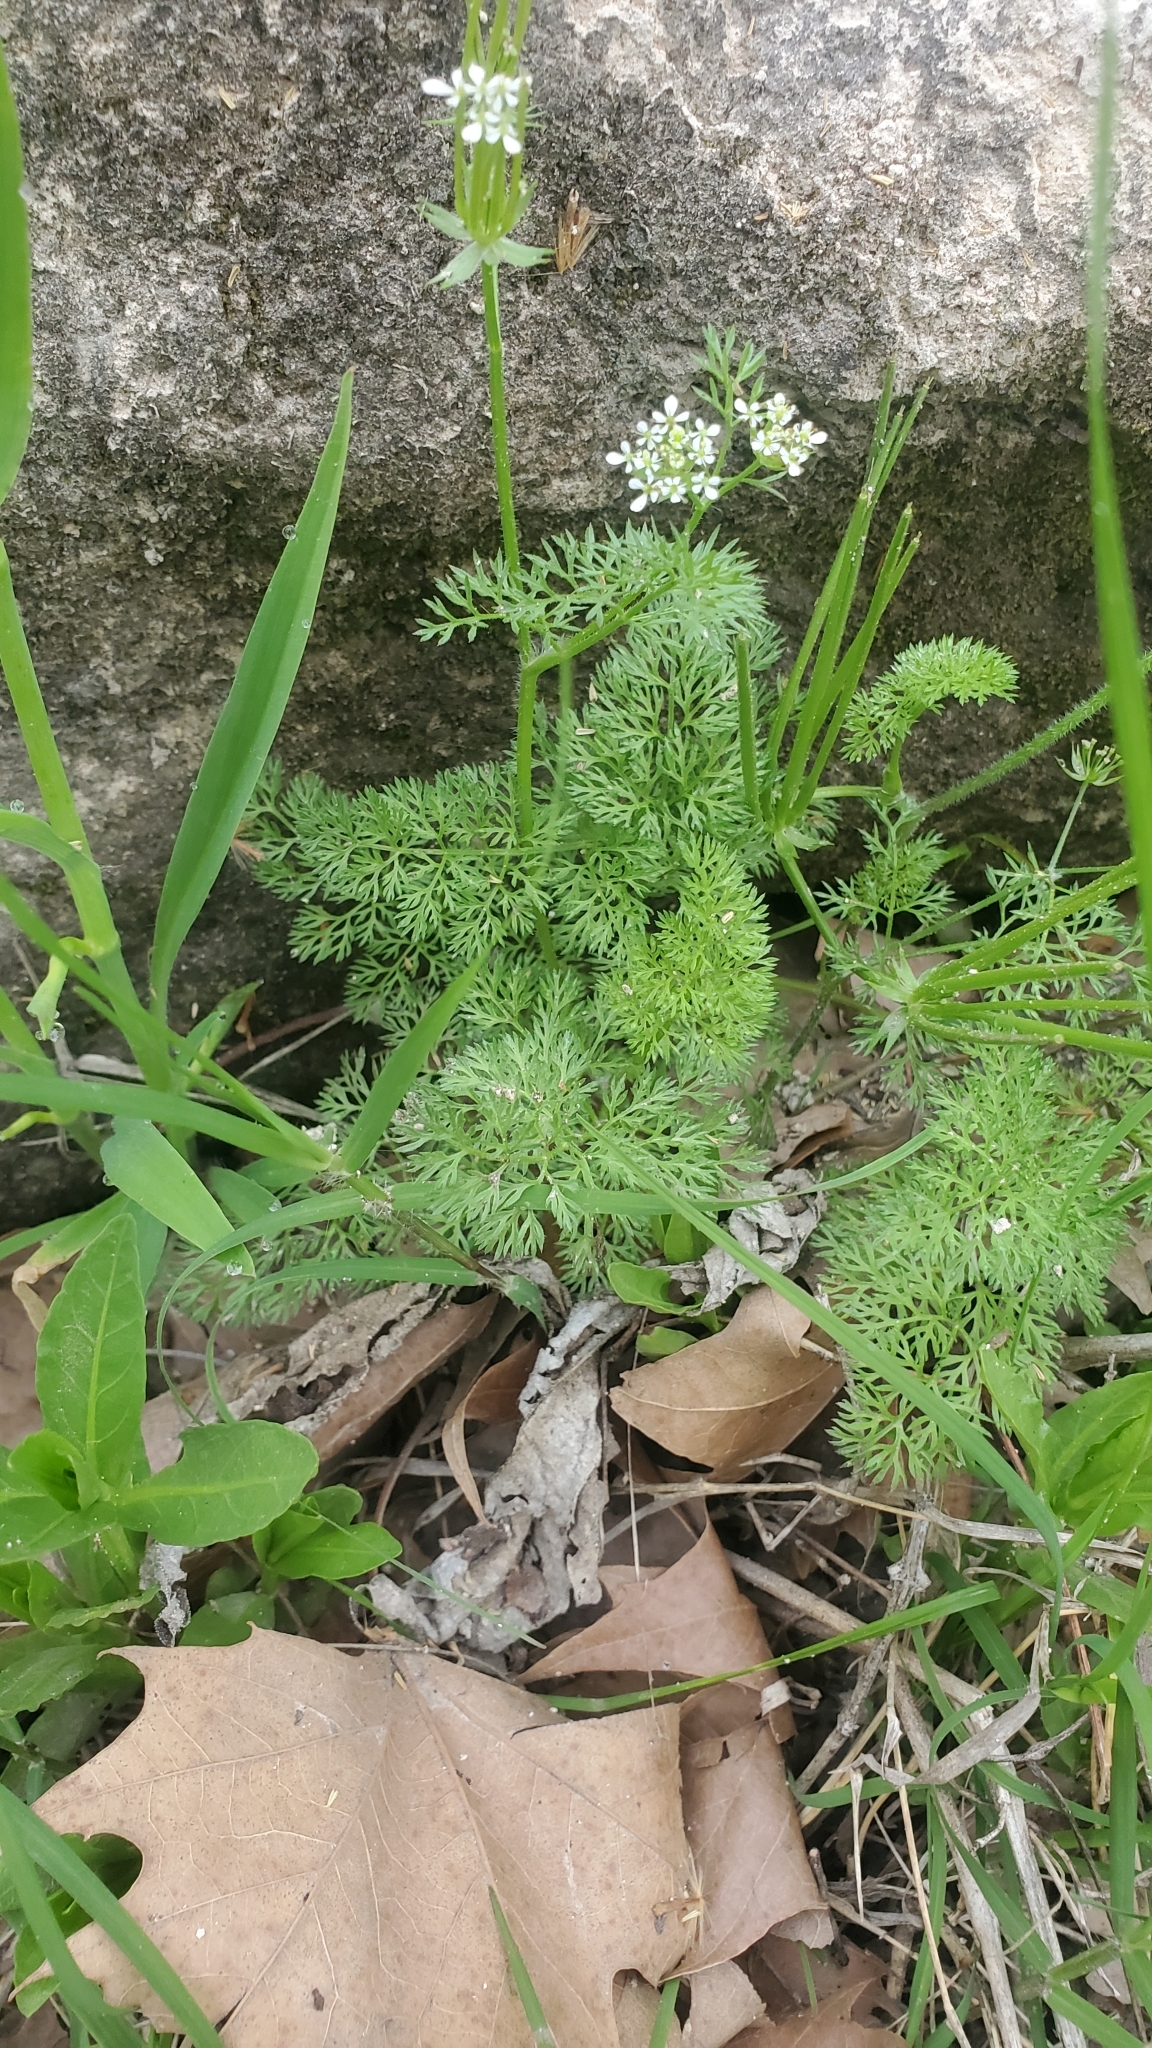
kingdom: Plantae
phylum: Tracheophyta
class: Magnoliopsida
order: Apiales
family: Apiaceae
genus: Scandix
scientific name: Scandix pecten-veneris
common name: Shepherd's-needle
